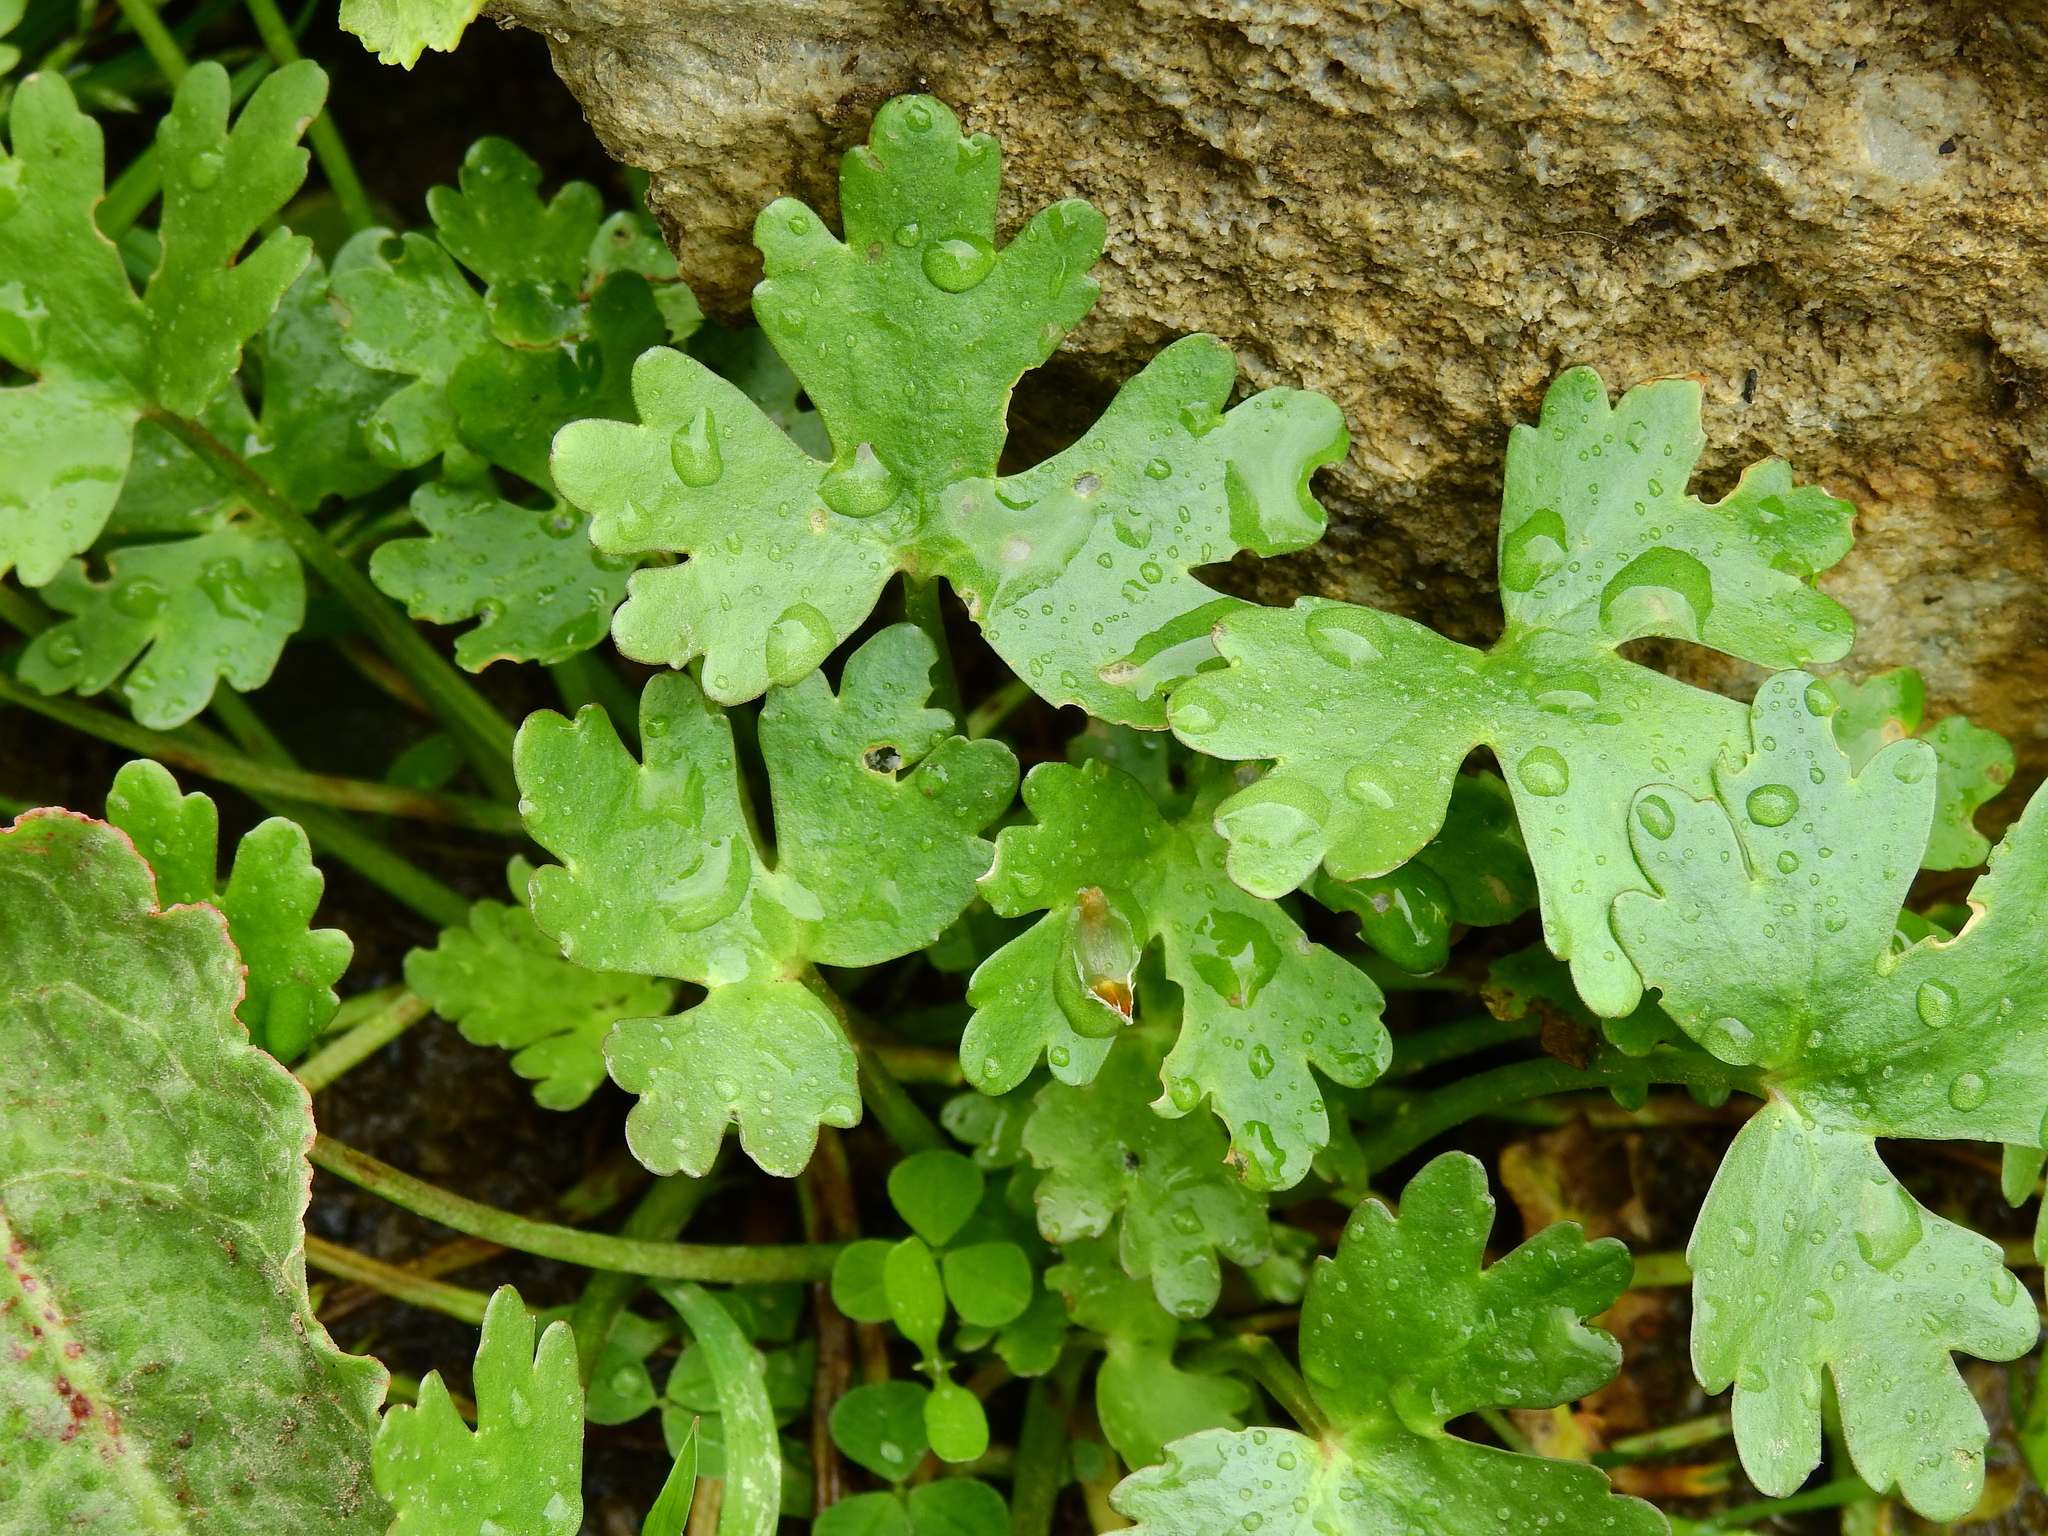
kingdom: Plantae
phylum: Tracheophyta
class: Magnoliopsida
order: Ranunculales
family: Ranunculaceae
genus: Ranunculus
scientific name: Ranunculus sceleratus
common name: Celery-leaved buttercup
